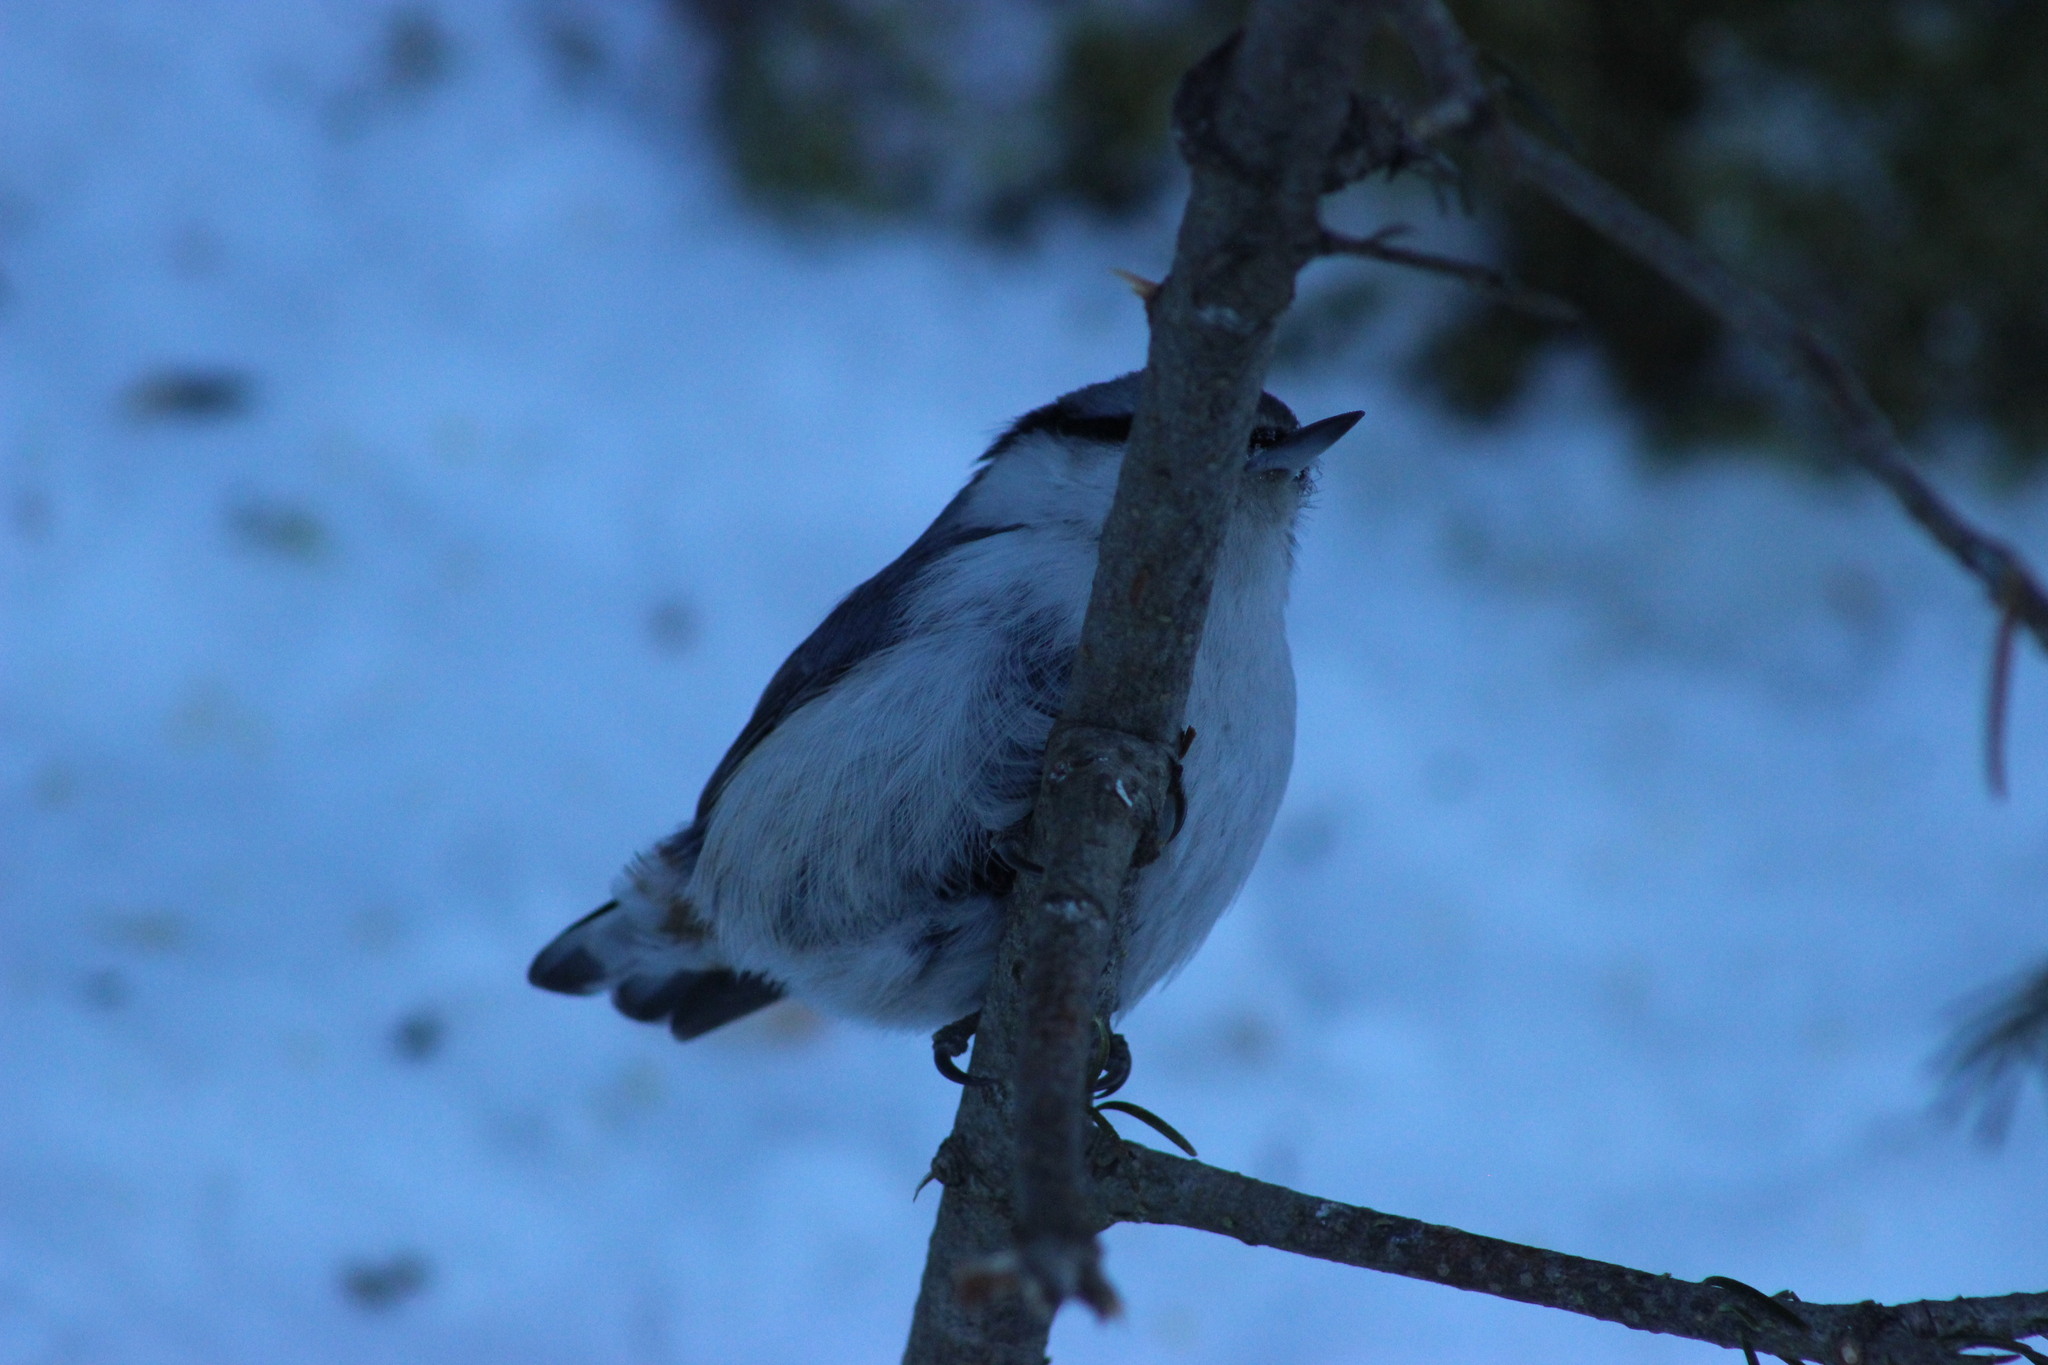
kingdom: Animalia
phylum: Chordata
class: Aves
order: Passeriformes
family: Sittidae
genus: Sitta
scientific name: Sitta europaea
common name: Eurasian nuthatch
